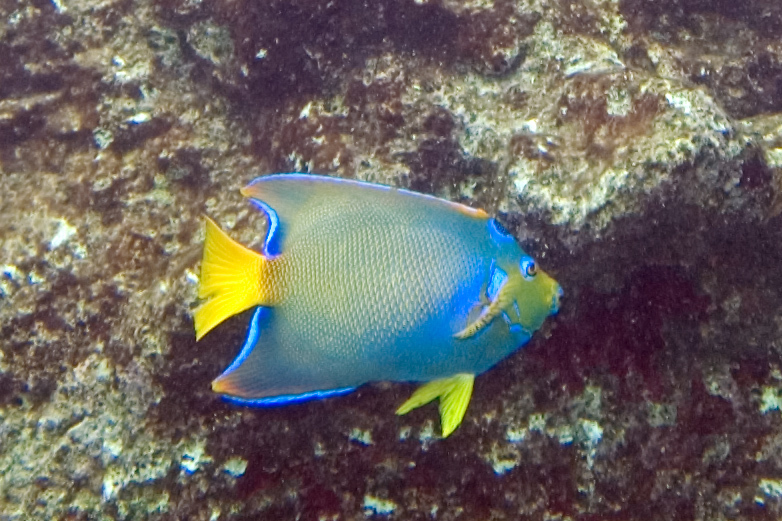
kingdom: Animalia
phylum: Chordata
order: Perciformes
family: Pomacanthidae
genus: Holacanthus
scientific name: Holacanthus ciliaris
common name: Queen angelfish
